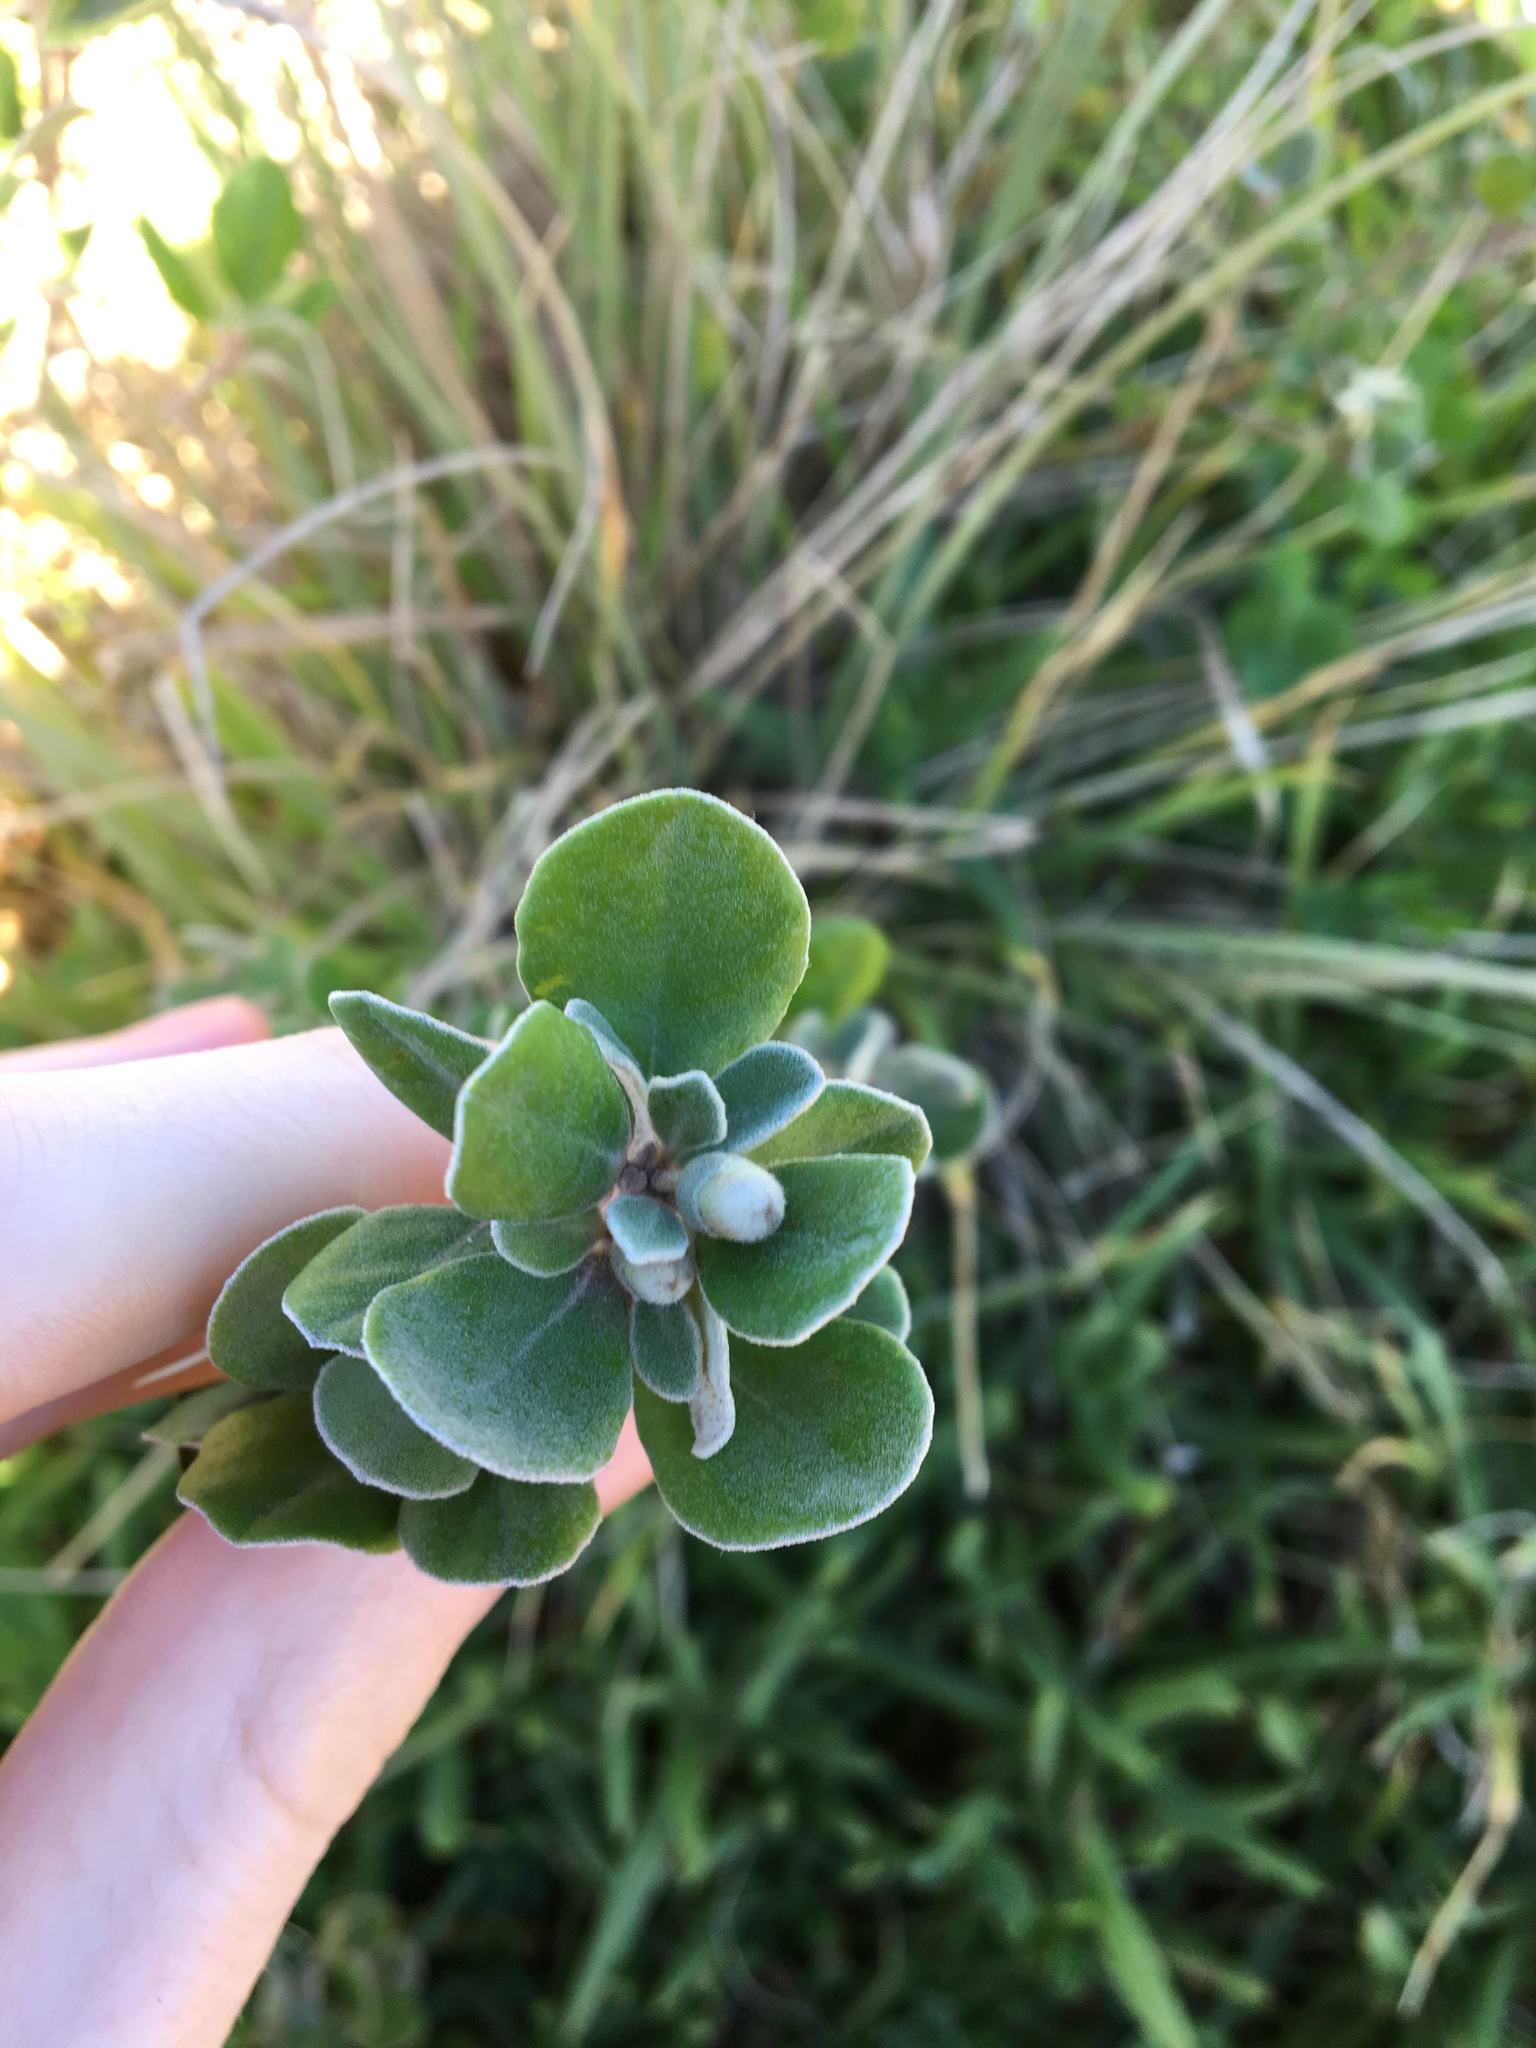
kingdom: Plantae
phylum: Tracheophyta
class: Magnoliopsida
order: Sapindales
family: Rutaceae
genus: Correa
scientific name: Correa alba
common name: White correa
